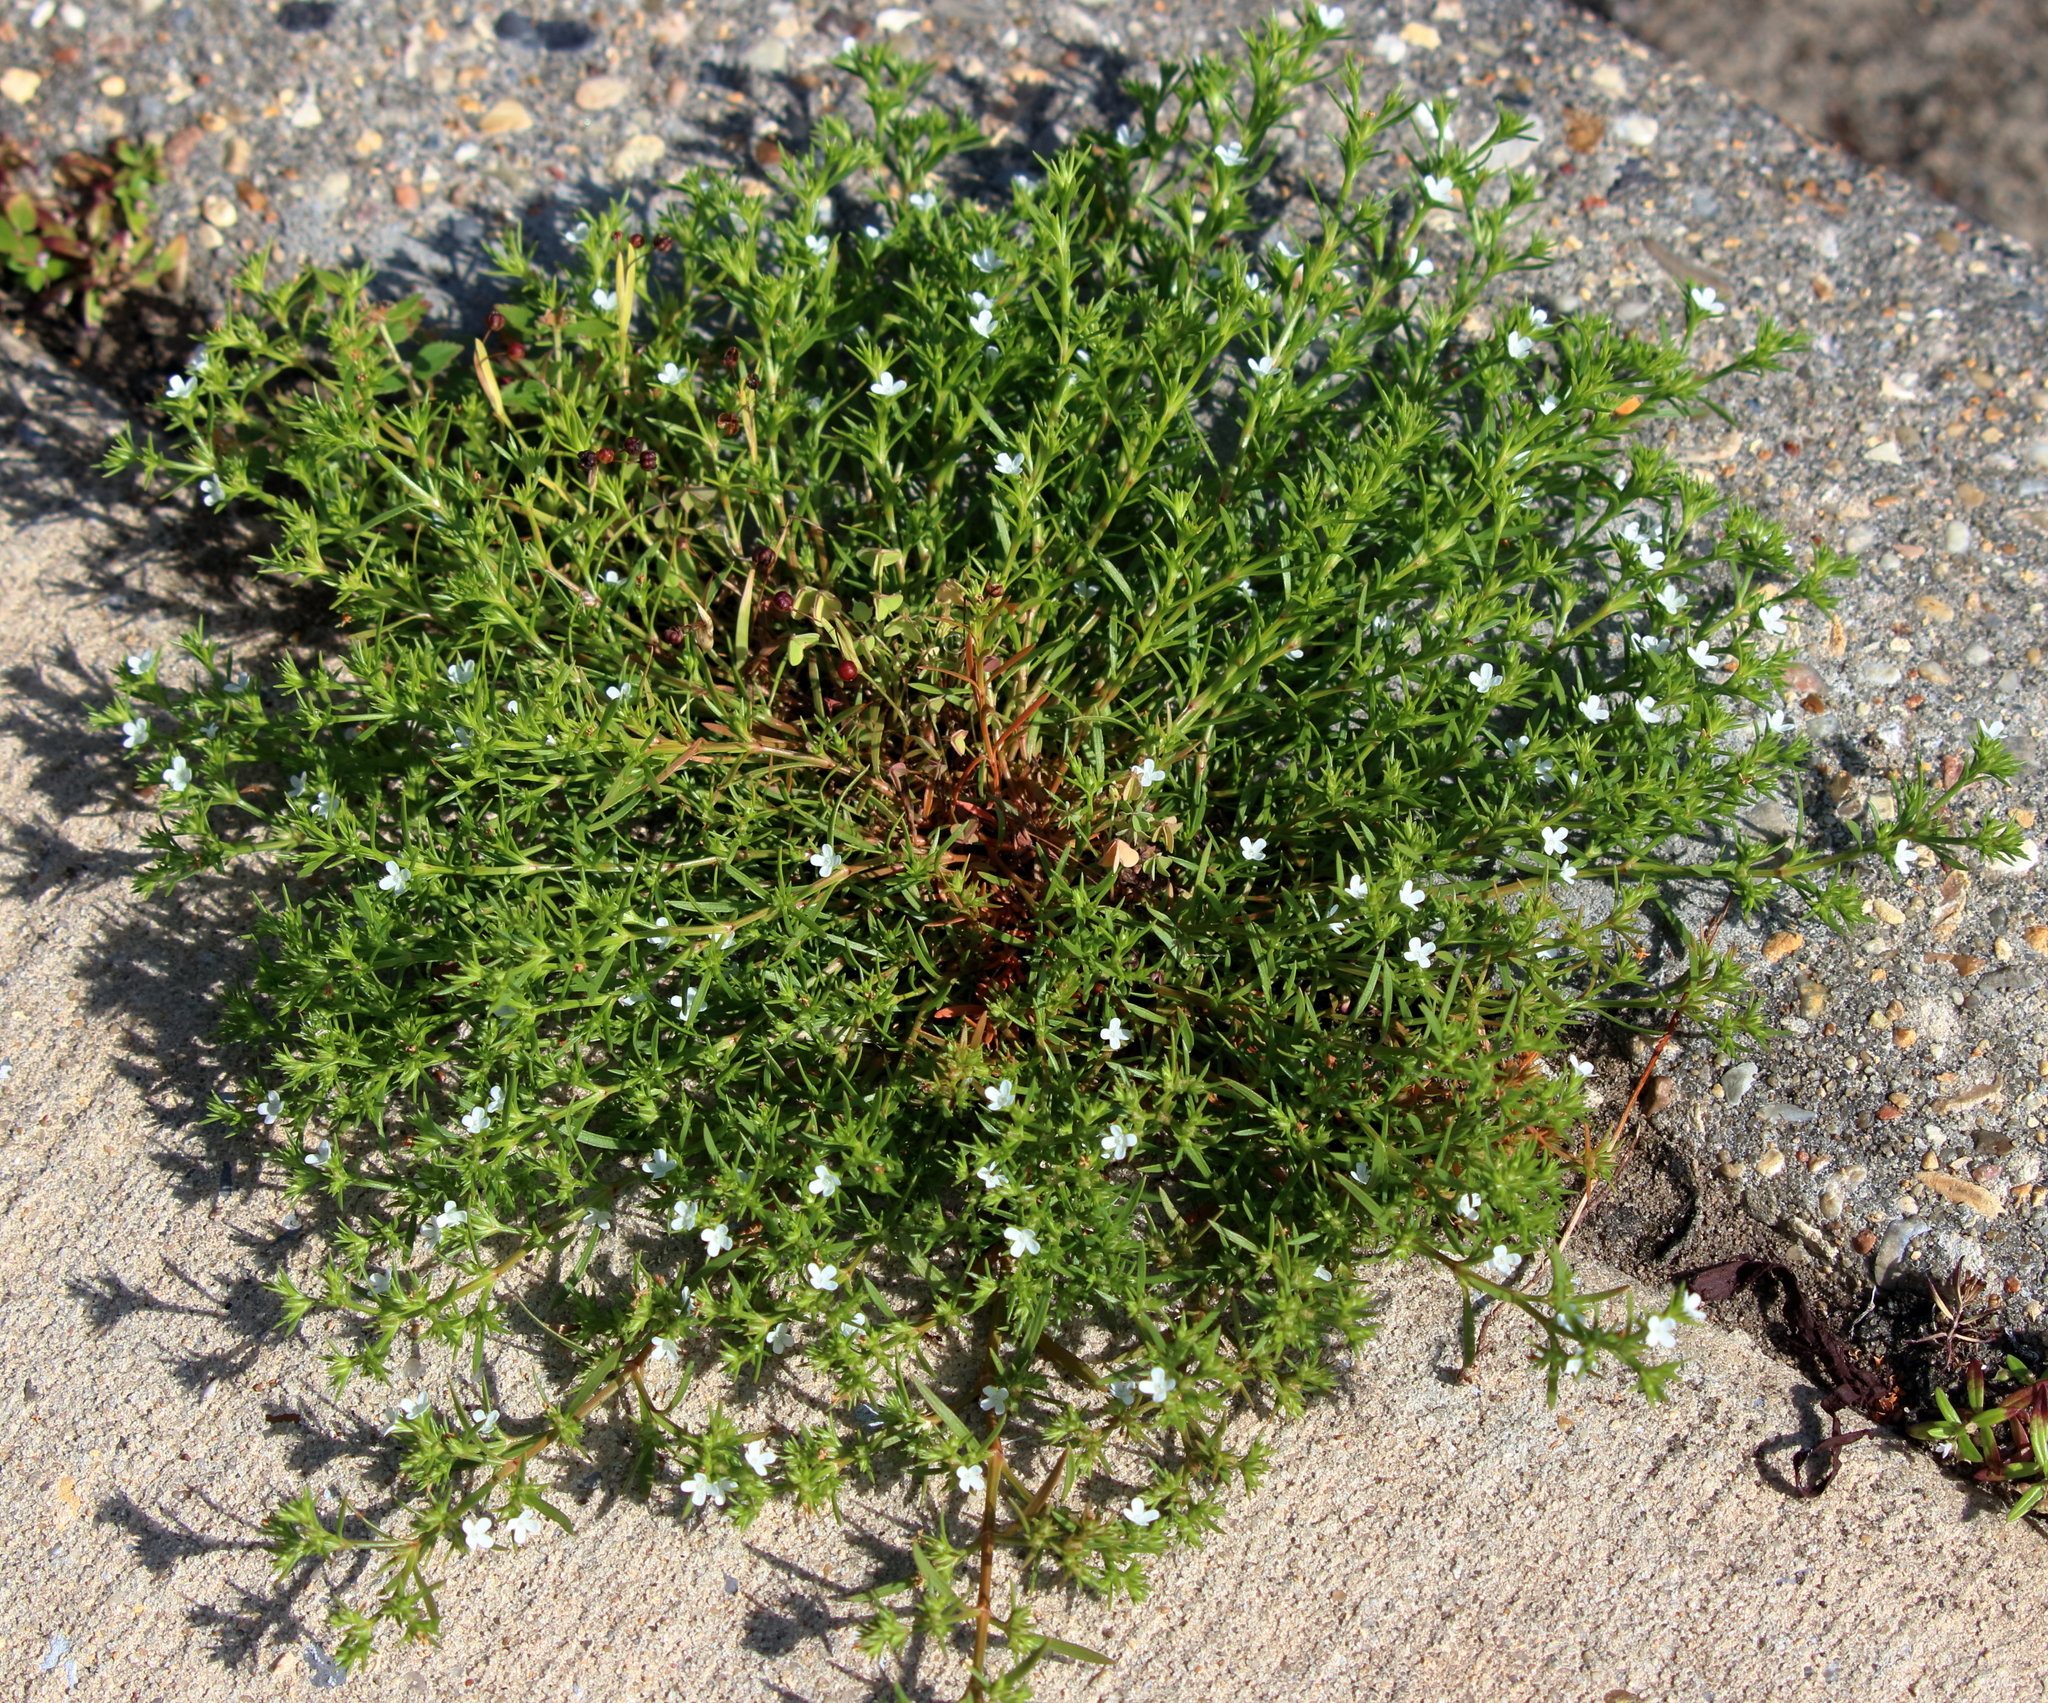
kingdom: Plantae
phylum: Tracheophyta
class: Magnoliopsida
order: Lamiales
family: Tetrachondraceae
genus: Polypremum
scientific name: Polypremum procumbens
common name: Juniper-leaf
